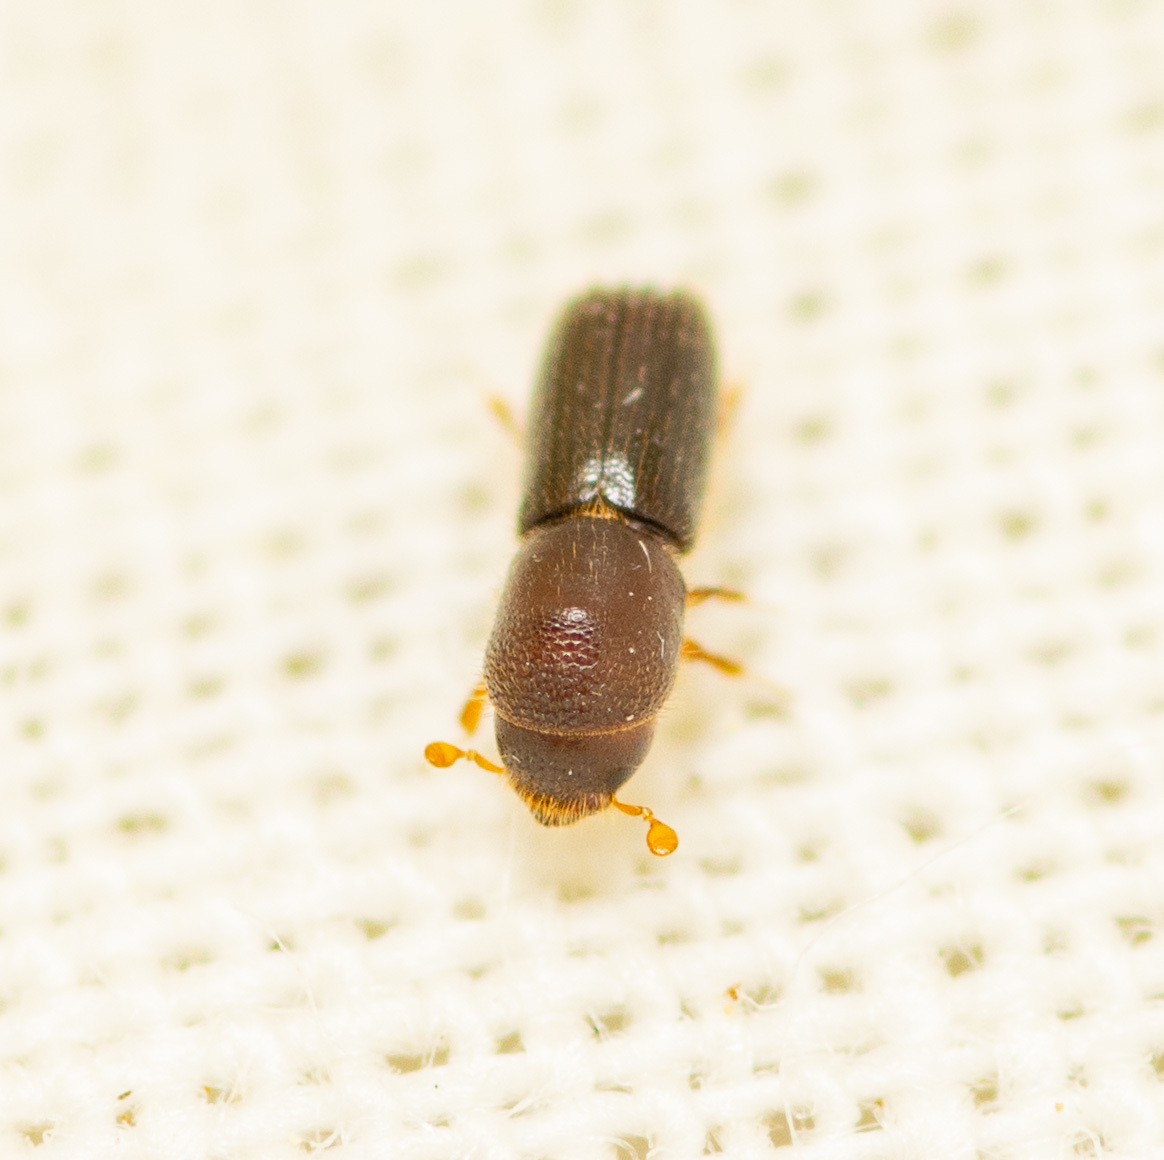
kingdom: Animalia
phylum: Arthropoda
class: Insecta
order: Coleoptera
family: Curculionidae
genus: Xyleborinus
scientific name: Xyleborinus saxesenii
